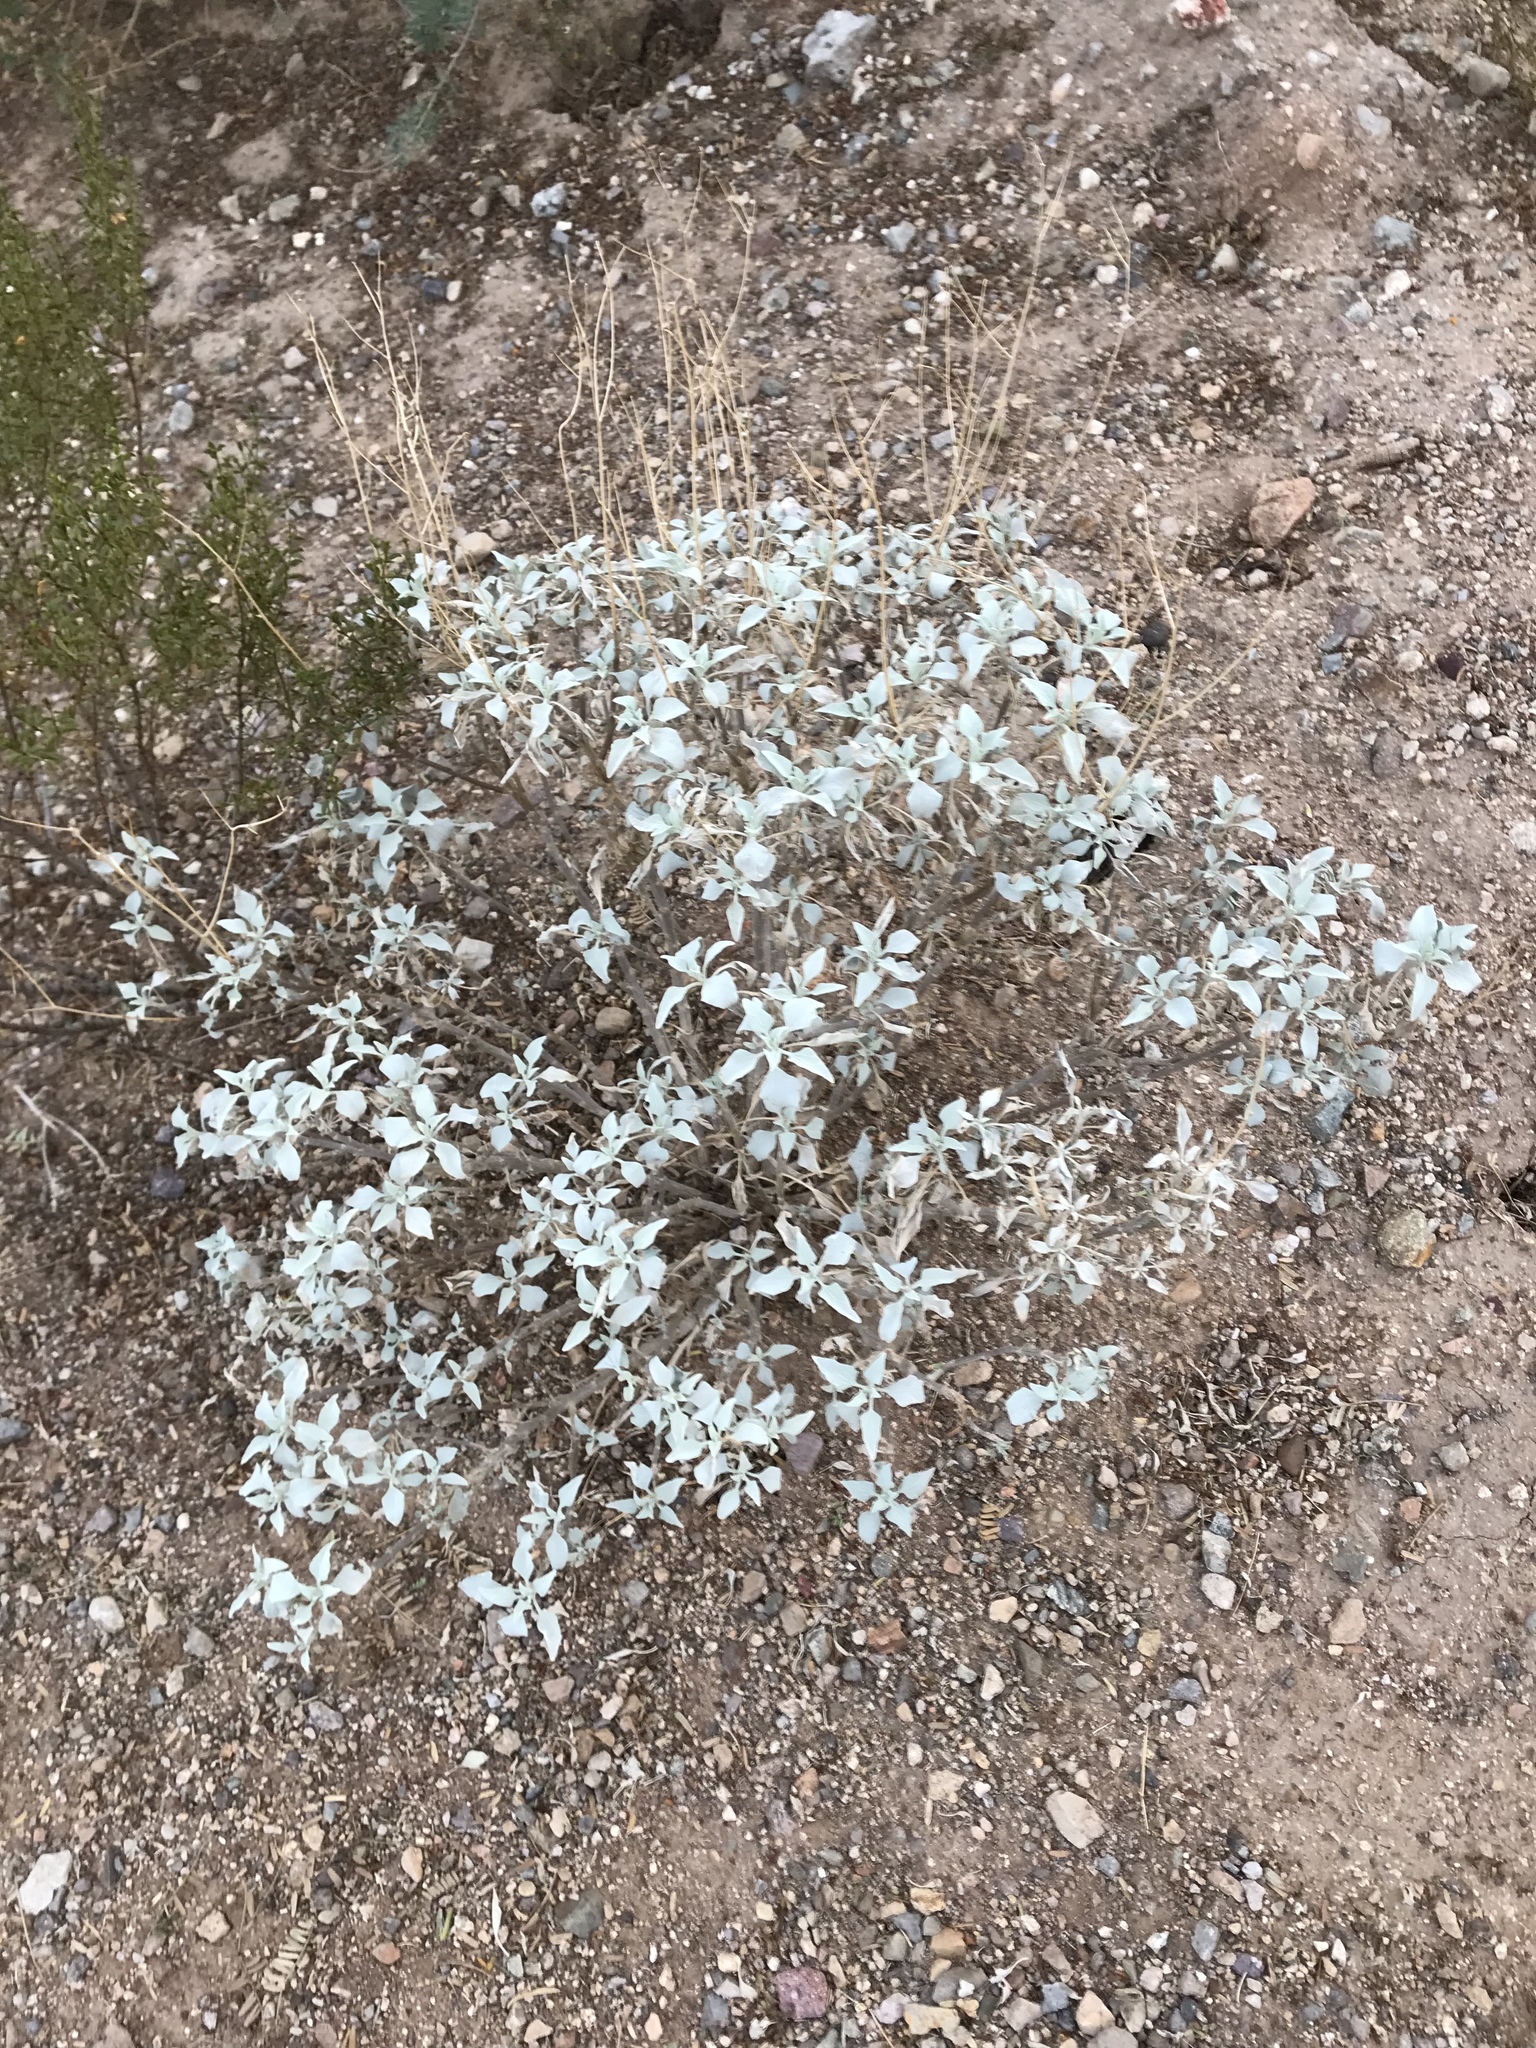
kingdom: Plantae
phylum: Tracheophyta
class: Magnoliopsida
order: Asterales
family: Asteraceae
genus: Encelia
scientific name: Encelia farinosa
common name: Brittlebush
